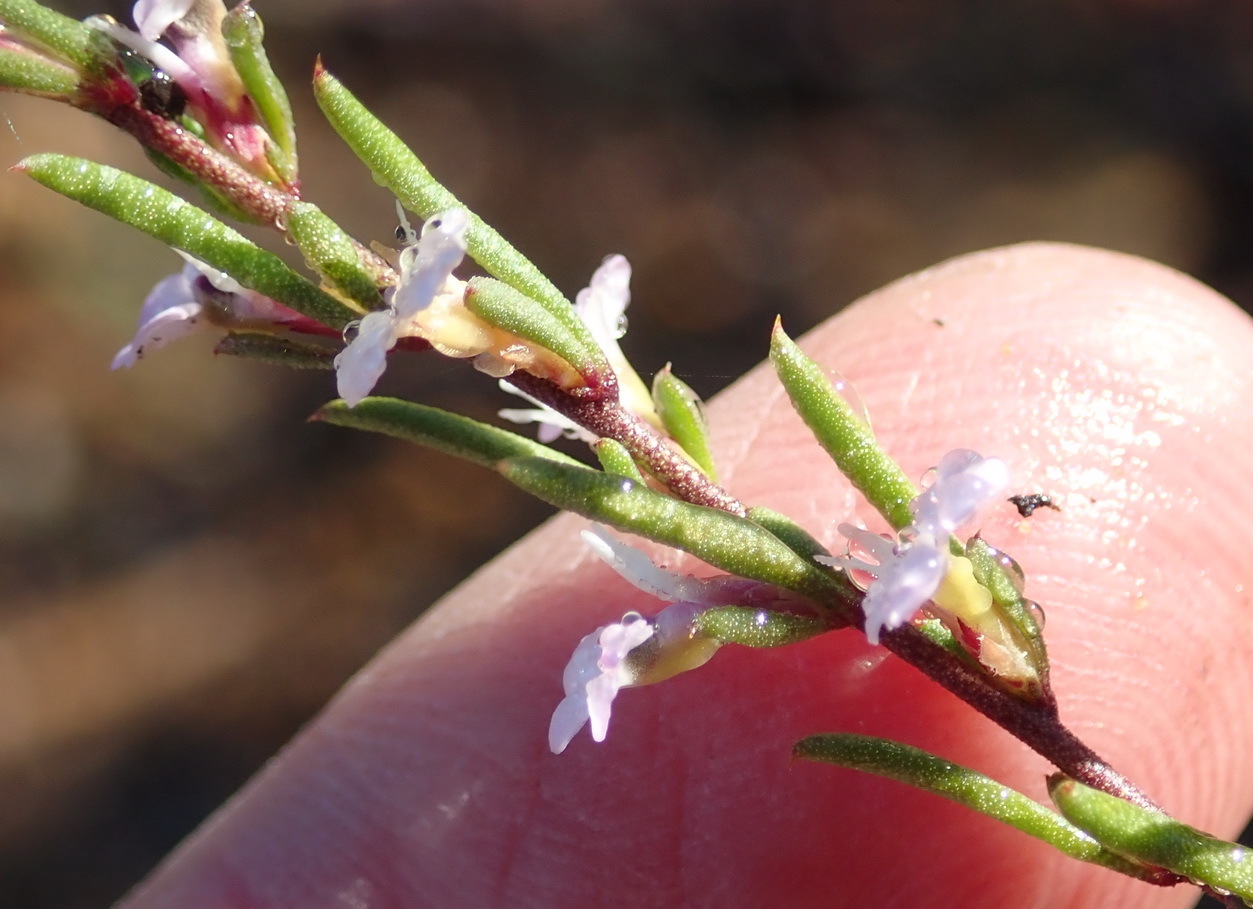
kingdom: Plantae
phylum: Tracheophyta
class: Magnoliopsida
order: Fabales
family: Polygalaceae
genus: Muraltia
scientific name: Muraltia dispersa
